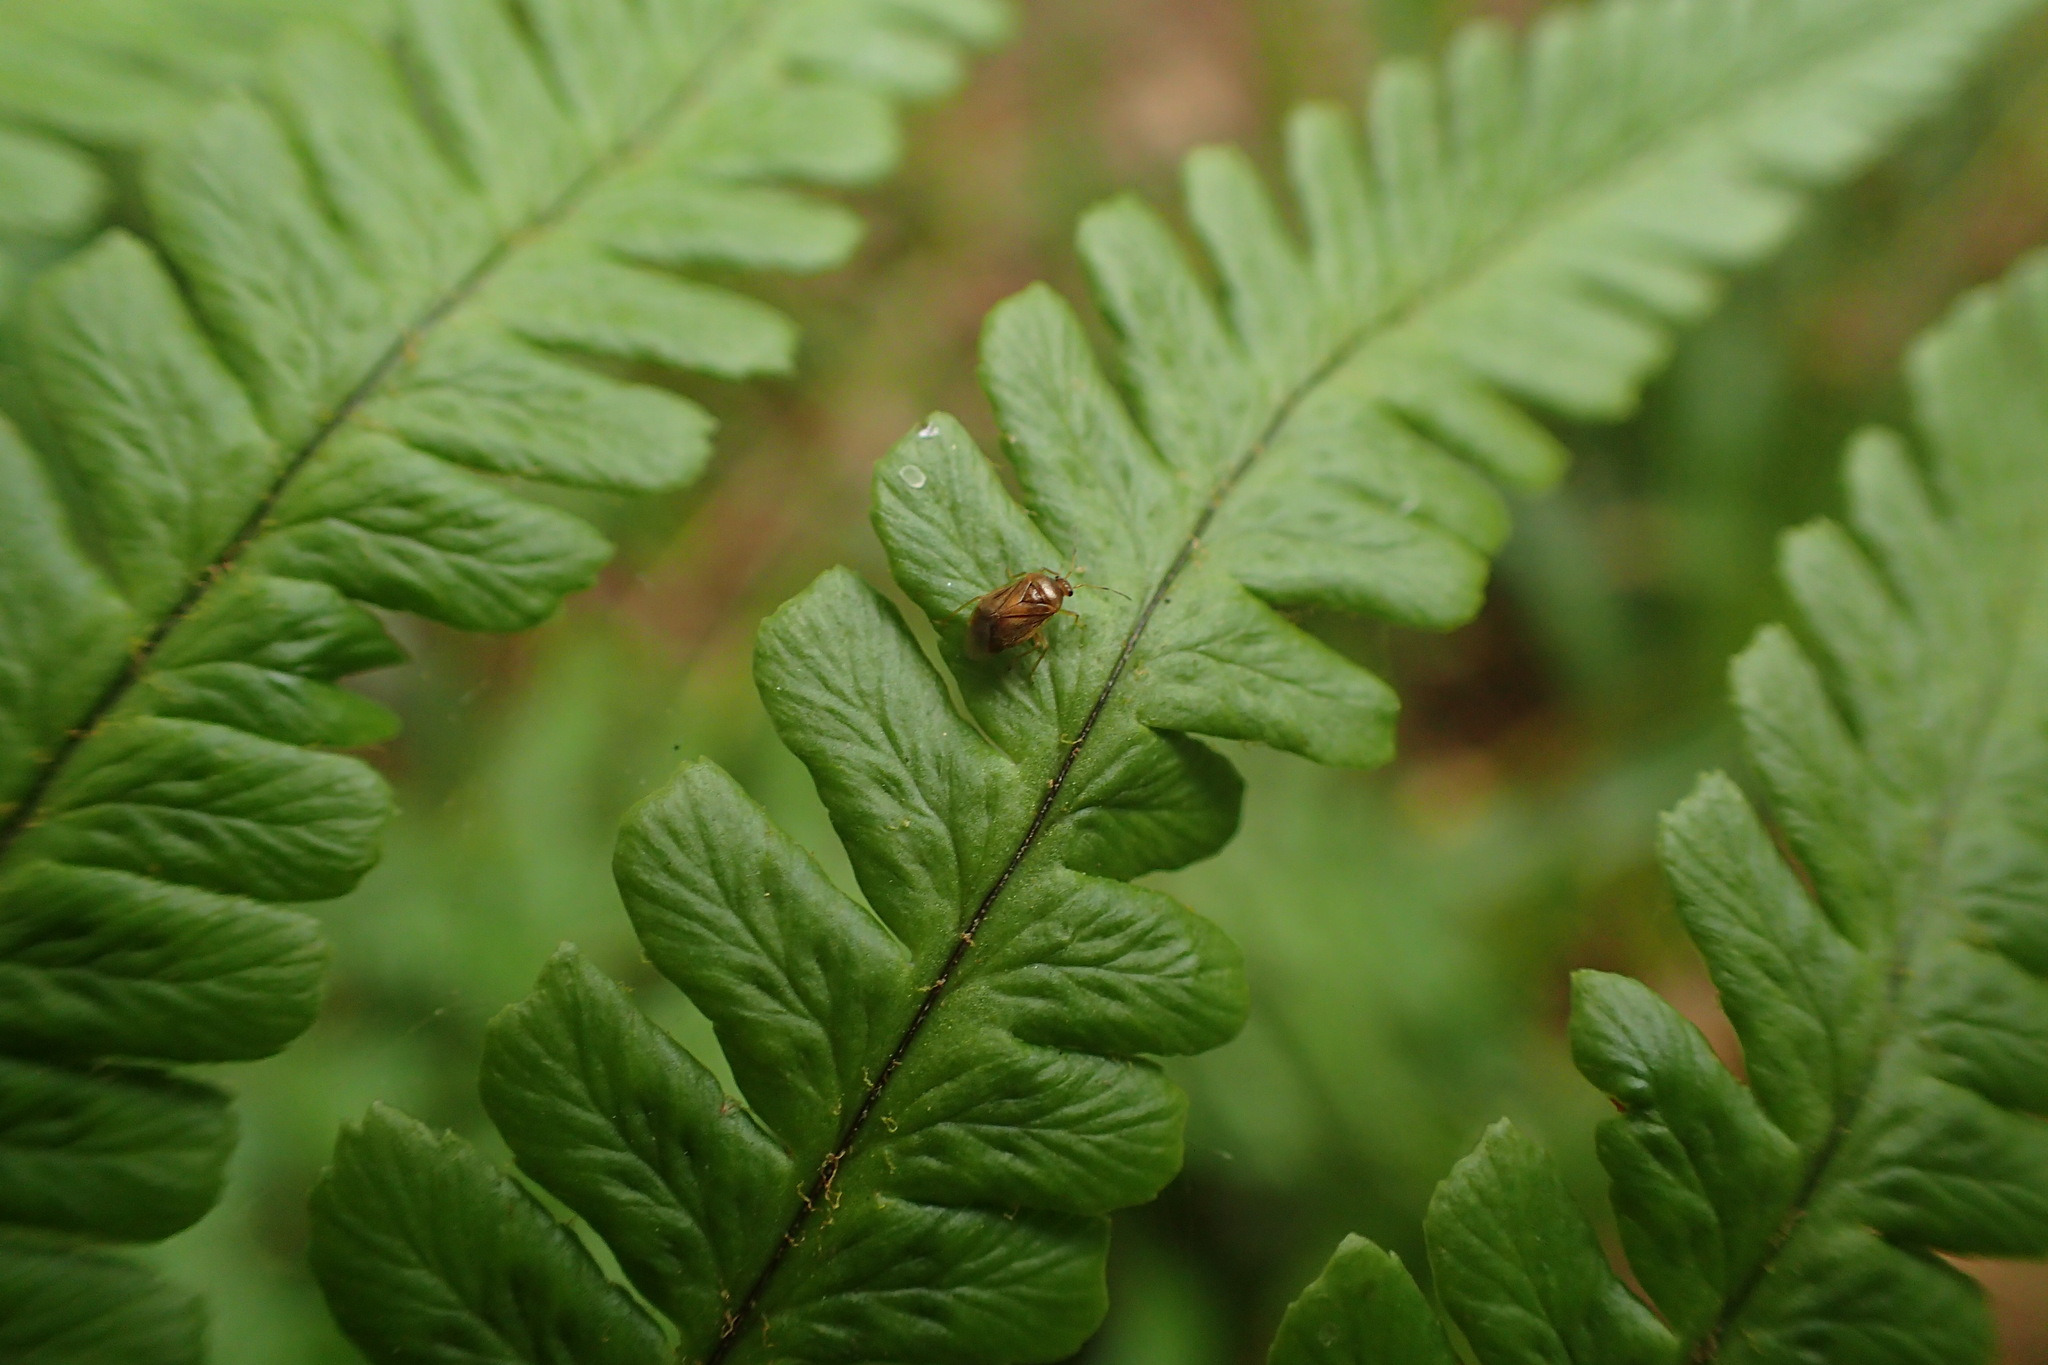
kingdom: Animalia
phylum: Arthropoda
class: Insecta
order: Hemiptera
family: Miridae
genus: Monalocoris
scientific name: Monalocoris filicis
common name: Bracken bug
